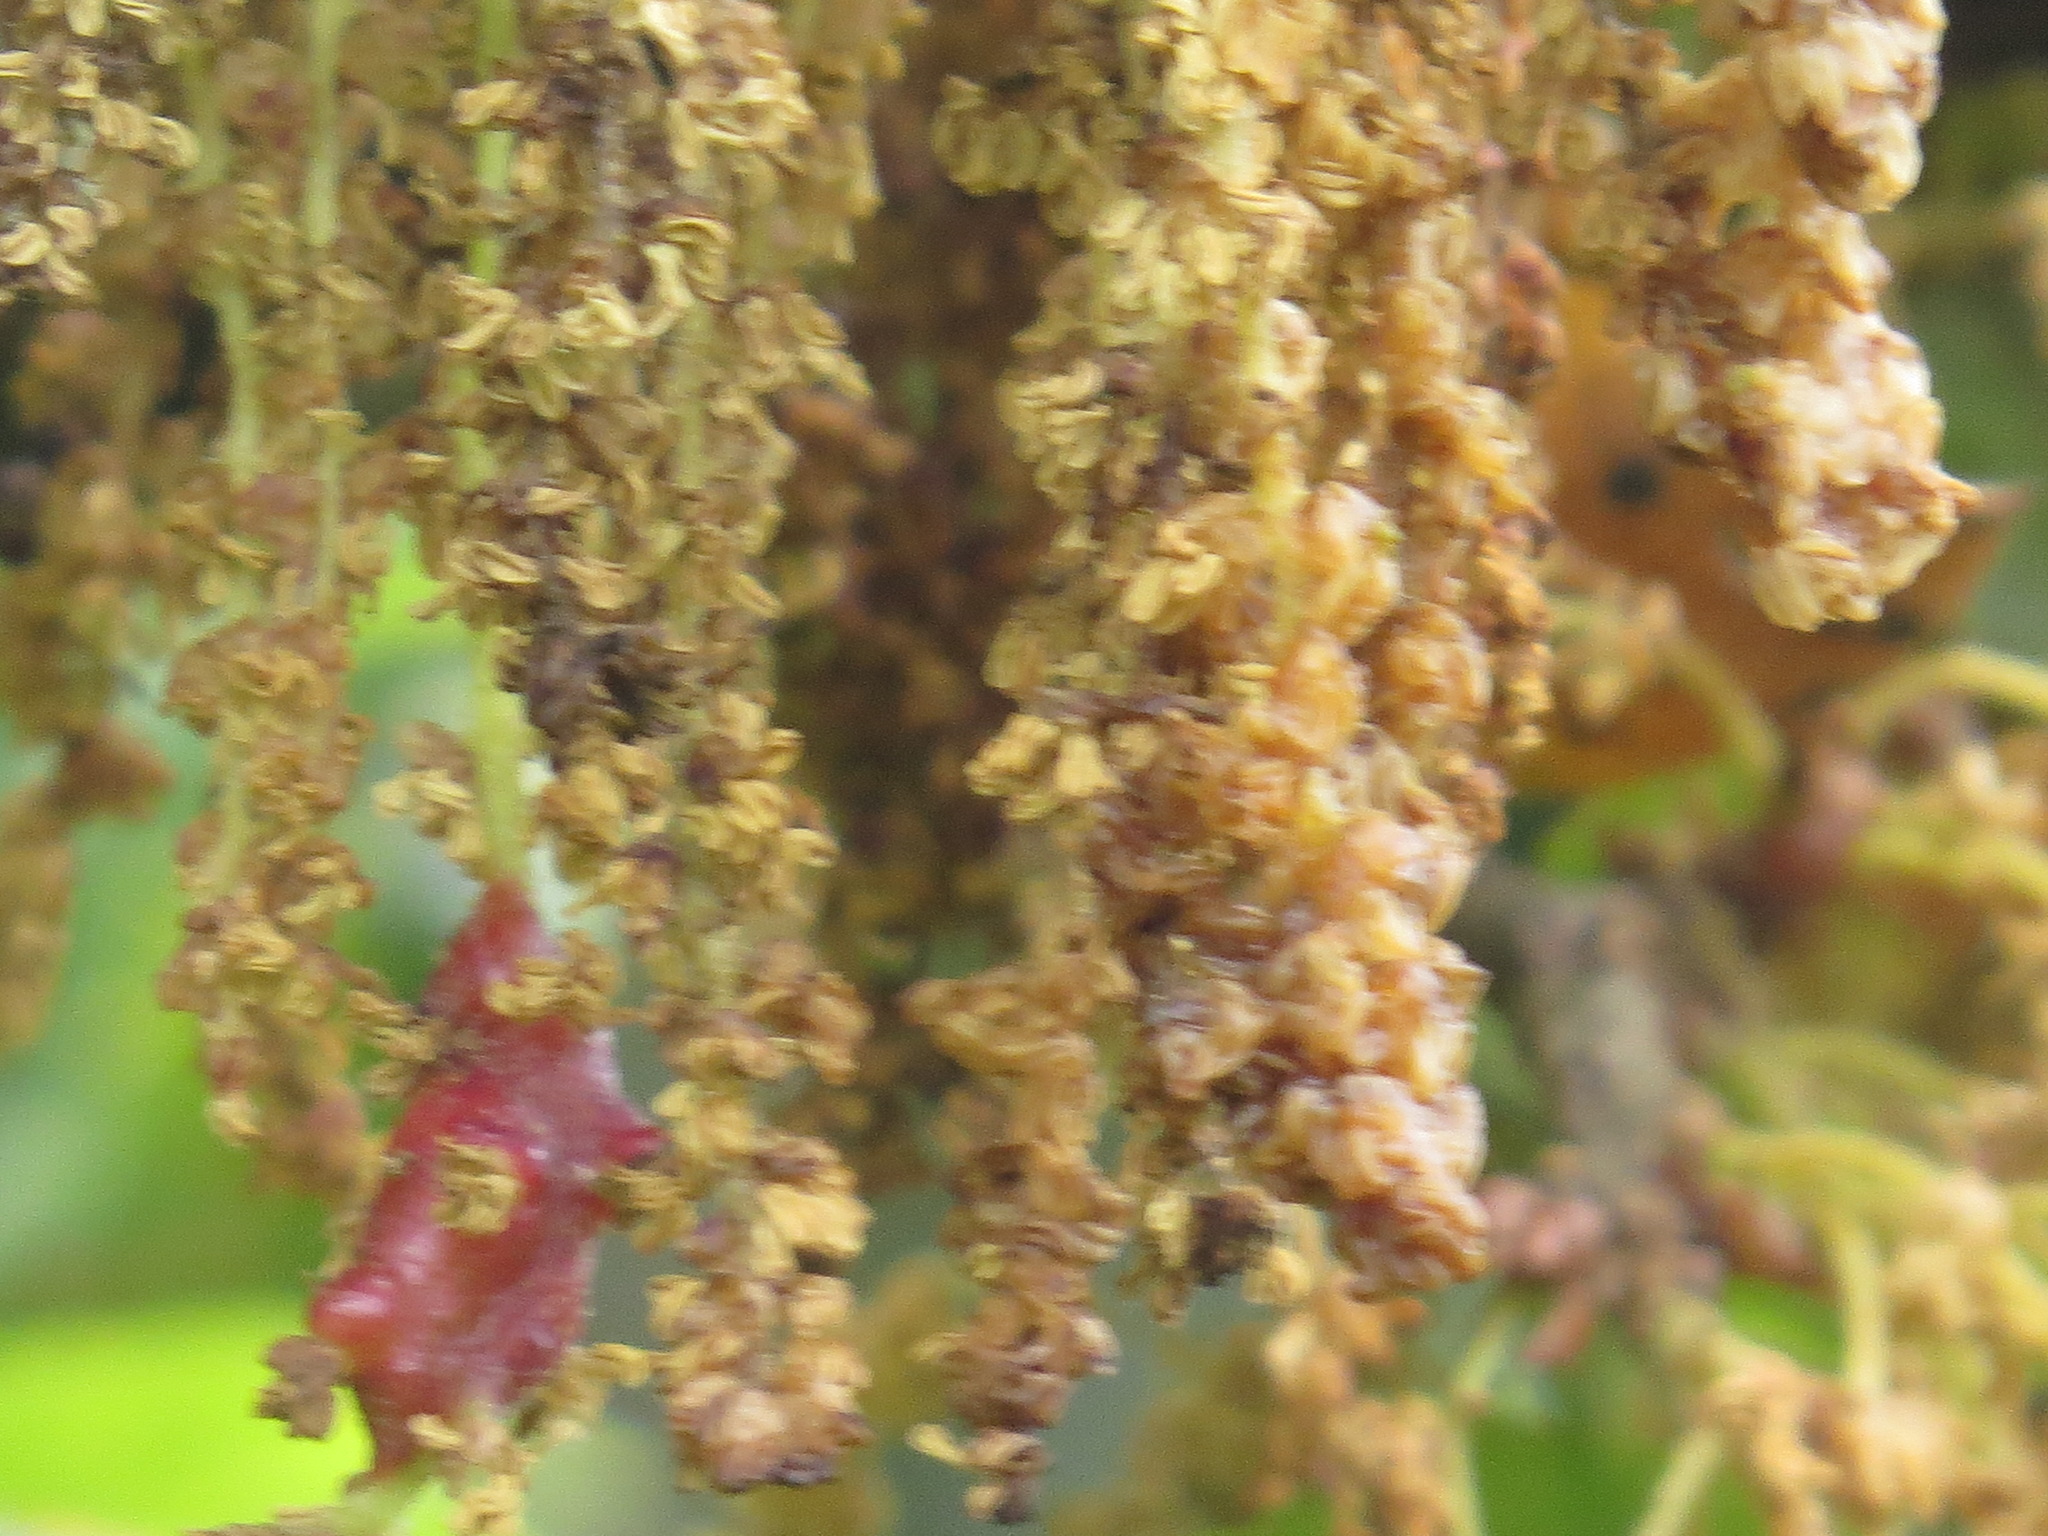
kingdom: Animalia
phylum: Arthropoda
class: Insecta
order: Hymenoptera
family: Cynipidae
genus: Callirhytis
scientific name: Callirhytis
